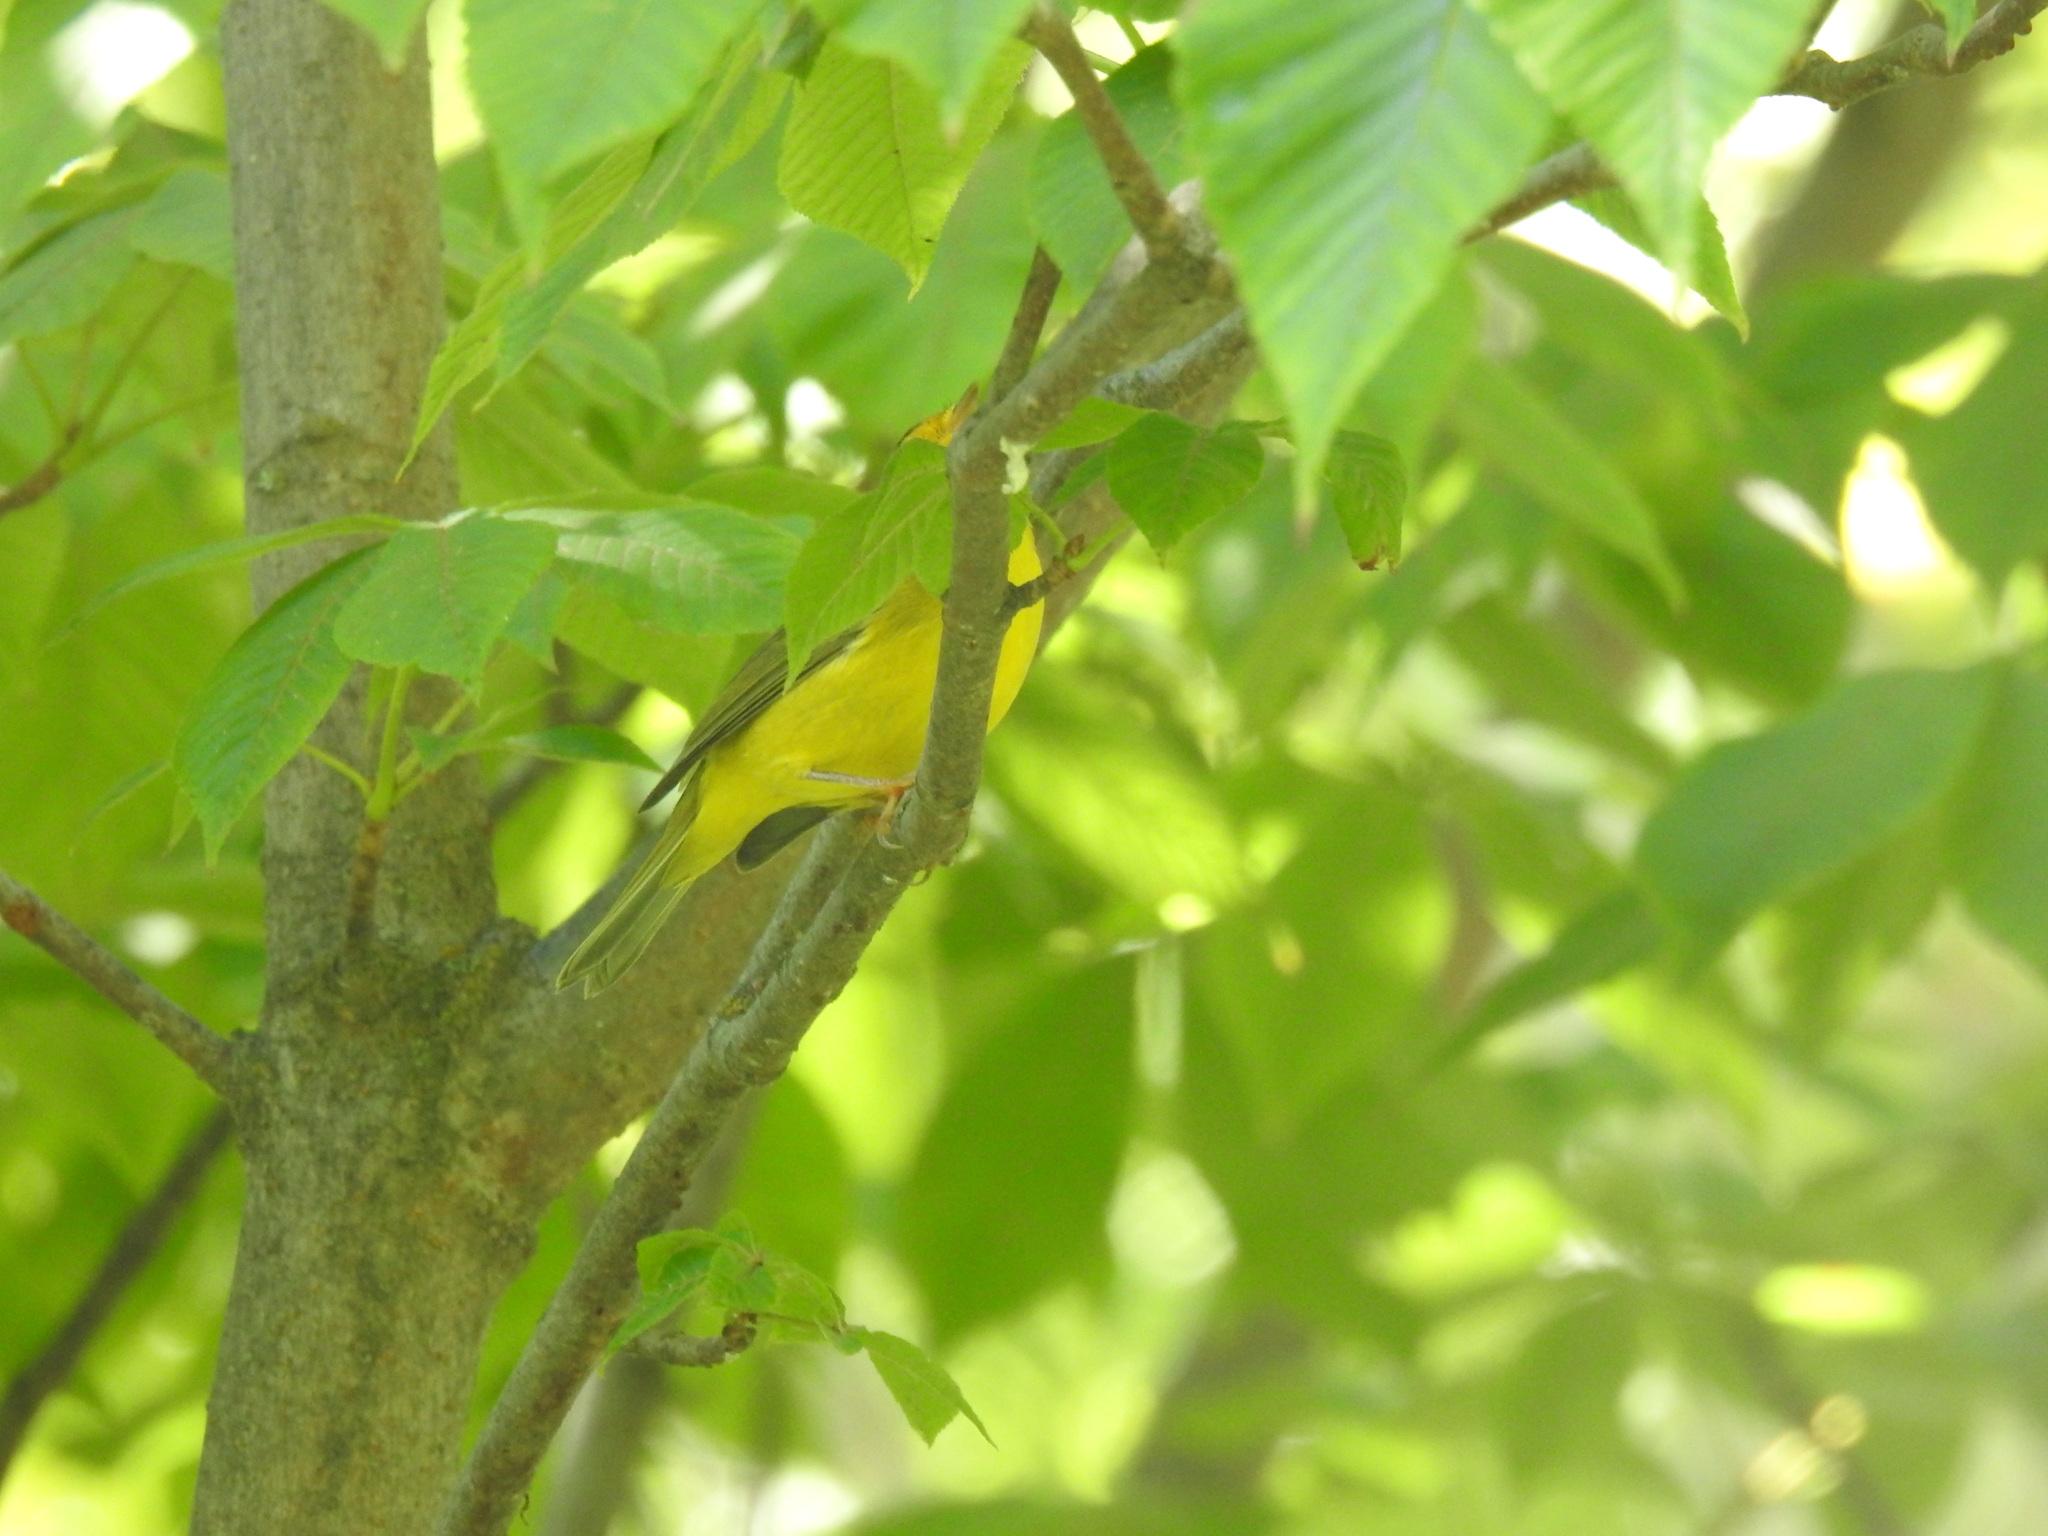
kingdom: Animalia
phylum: Chordata
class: Aves
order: Passeriformes
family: Parulidae
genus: Cardellina
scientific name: Cardellina pusilla
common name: Wilson's warbler
